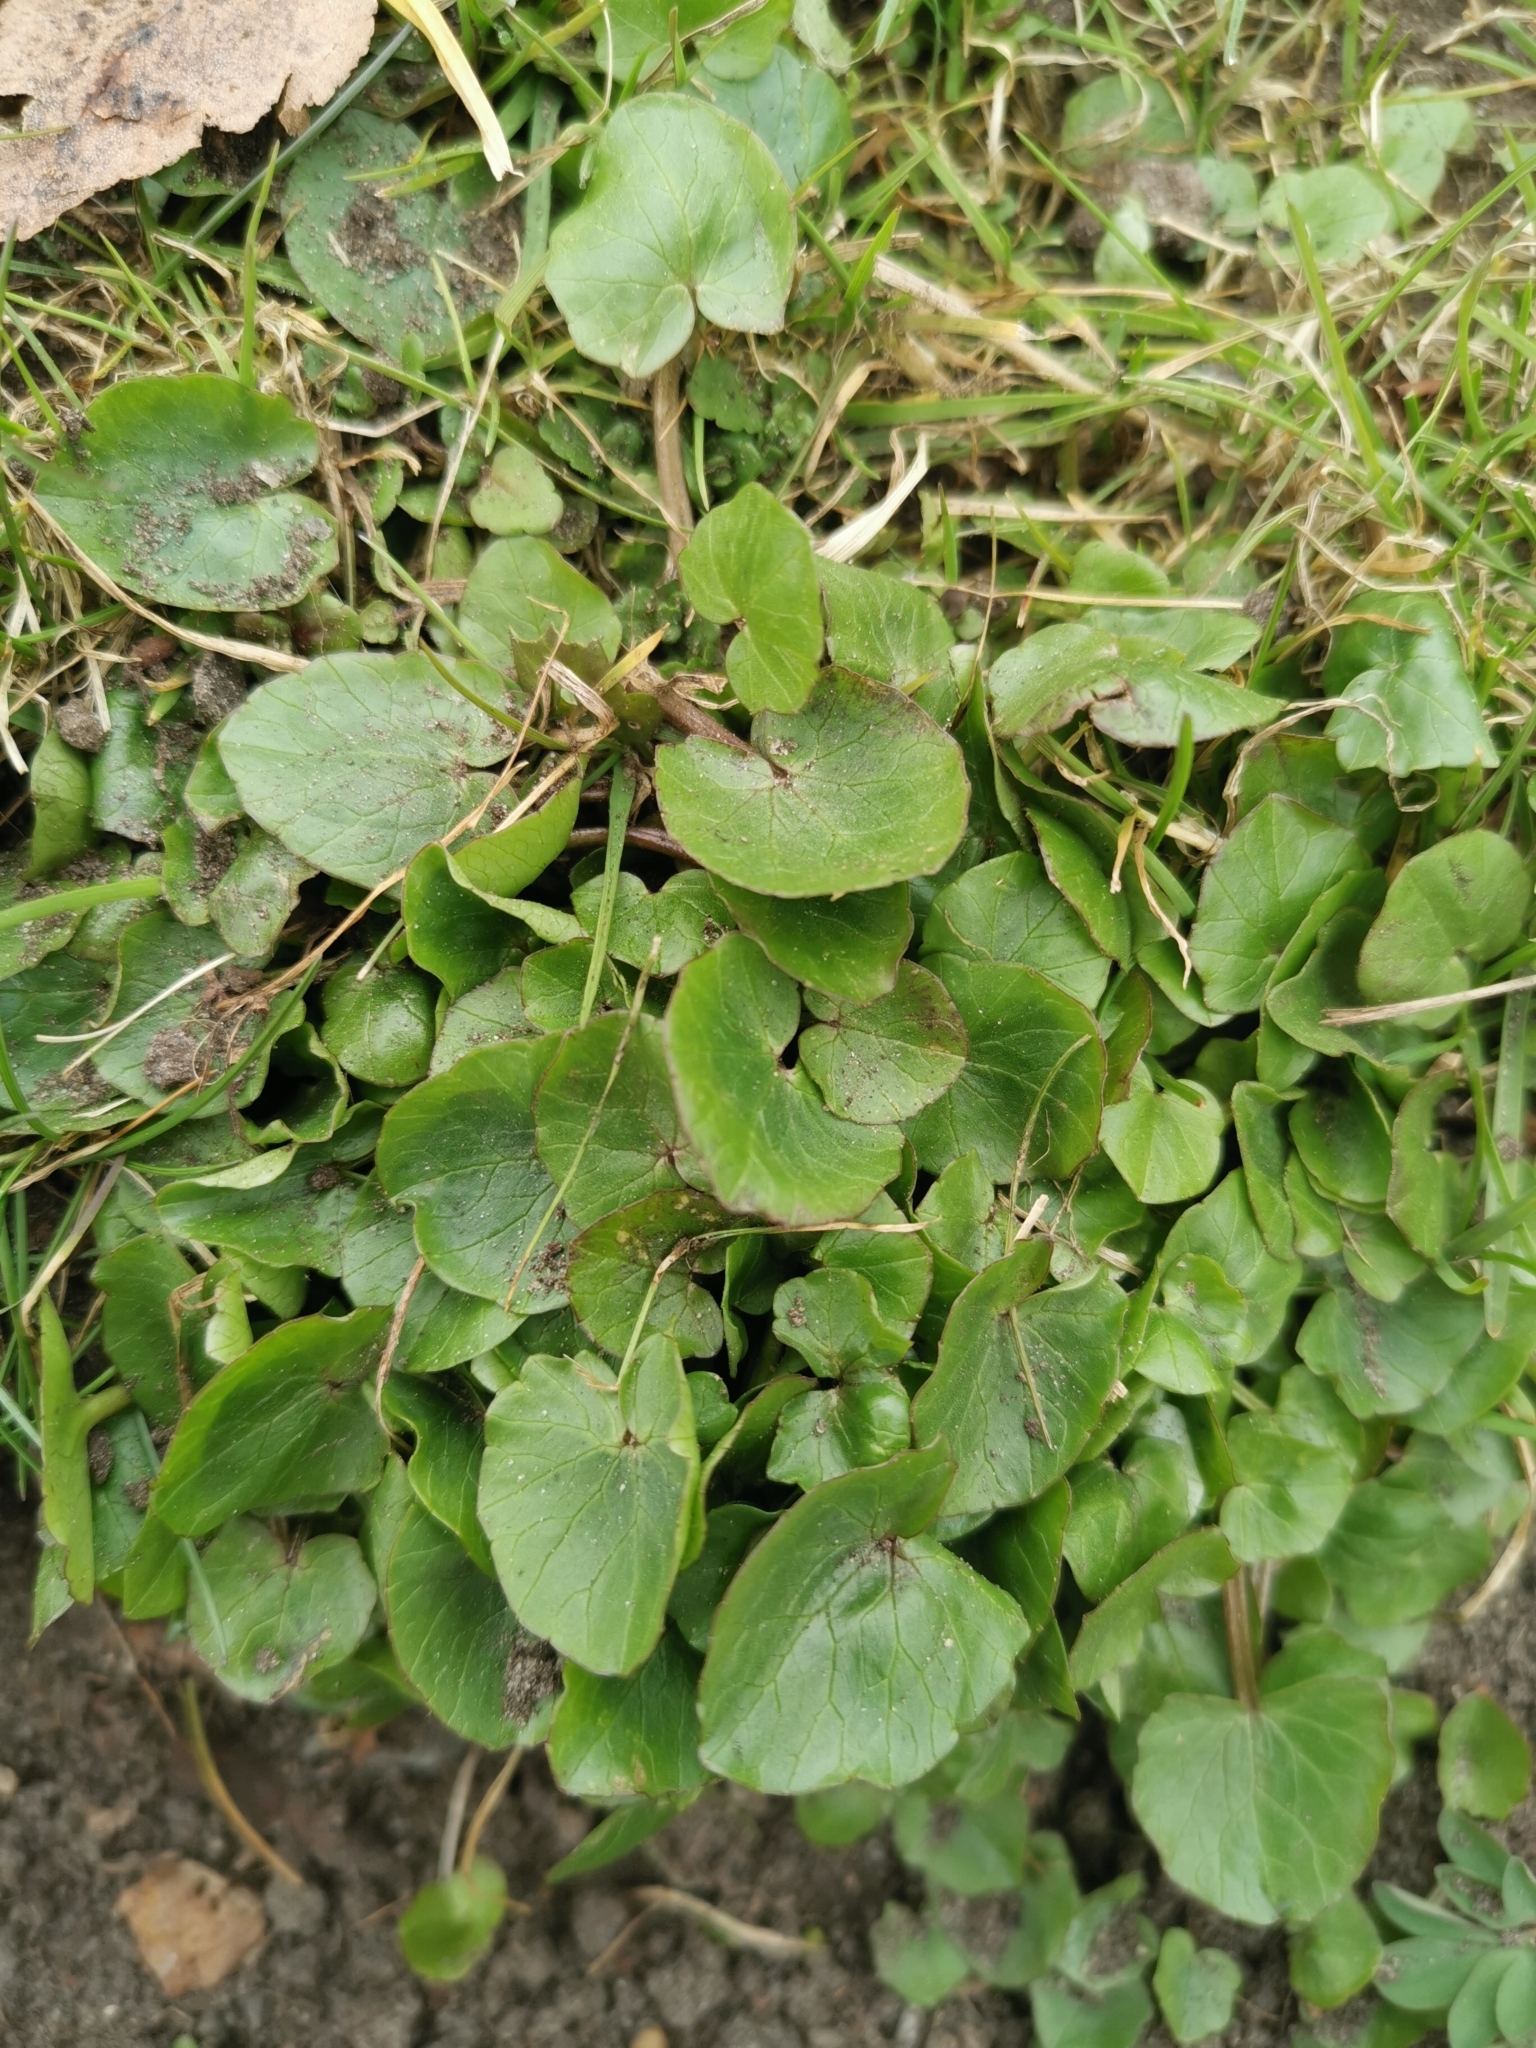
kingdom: Plantae
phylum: Tracheophyta
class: Magnoliopsida
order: Ranunculales
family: Ranunculaceae
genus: Ficaria
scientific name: Ficaria verna
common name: Lesser celandine
